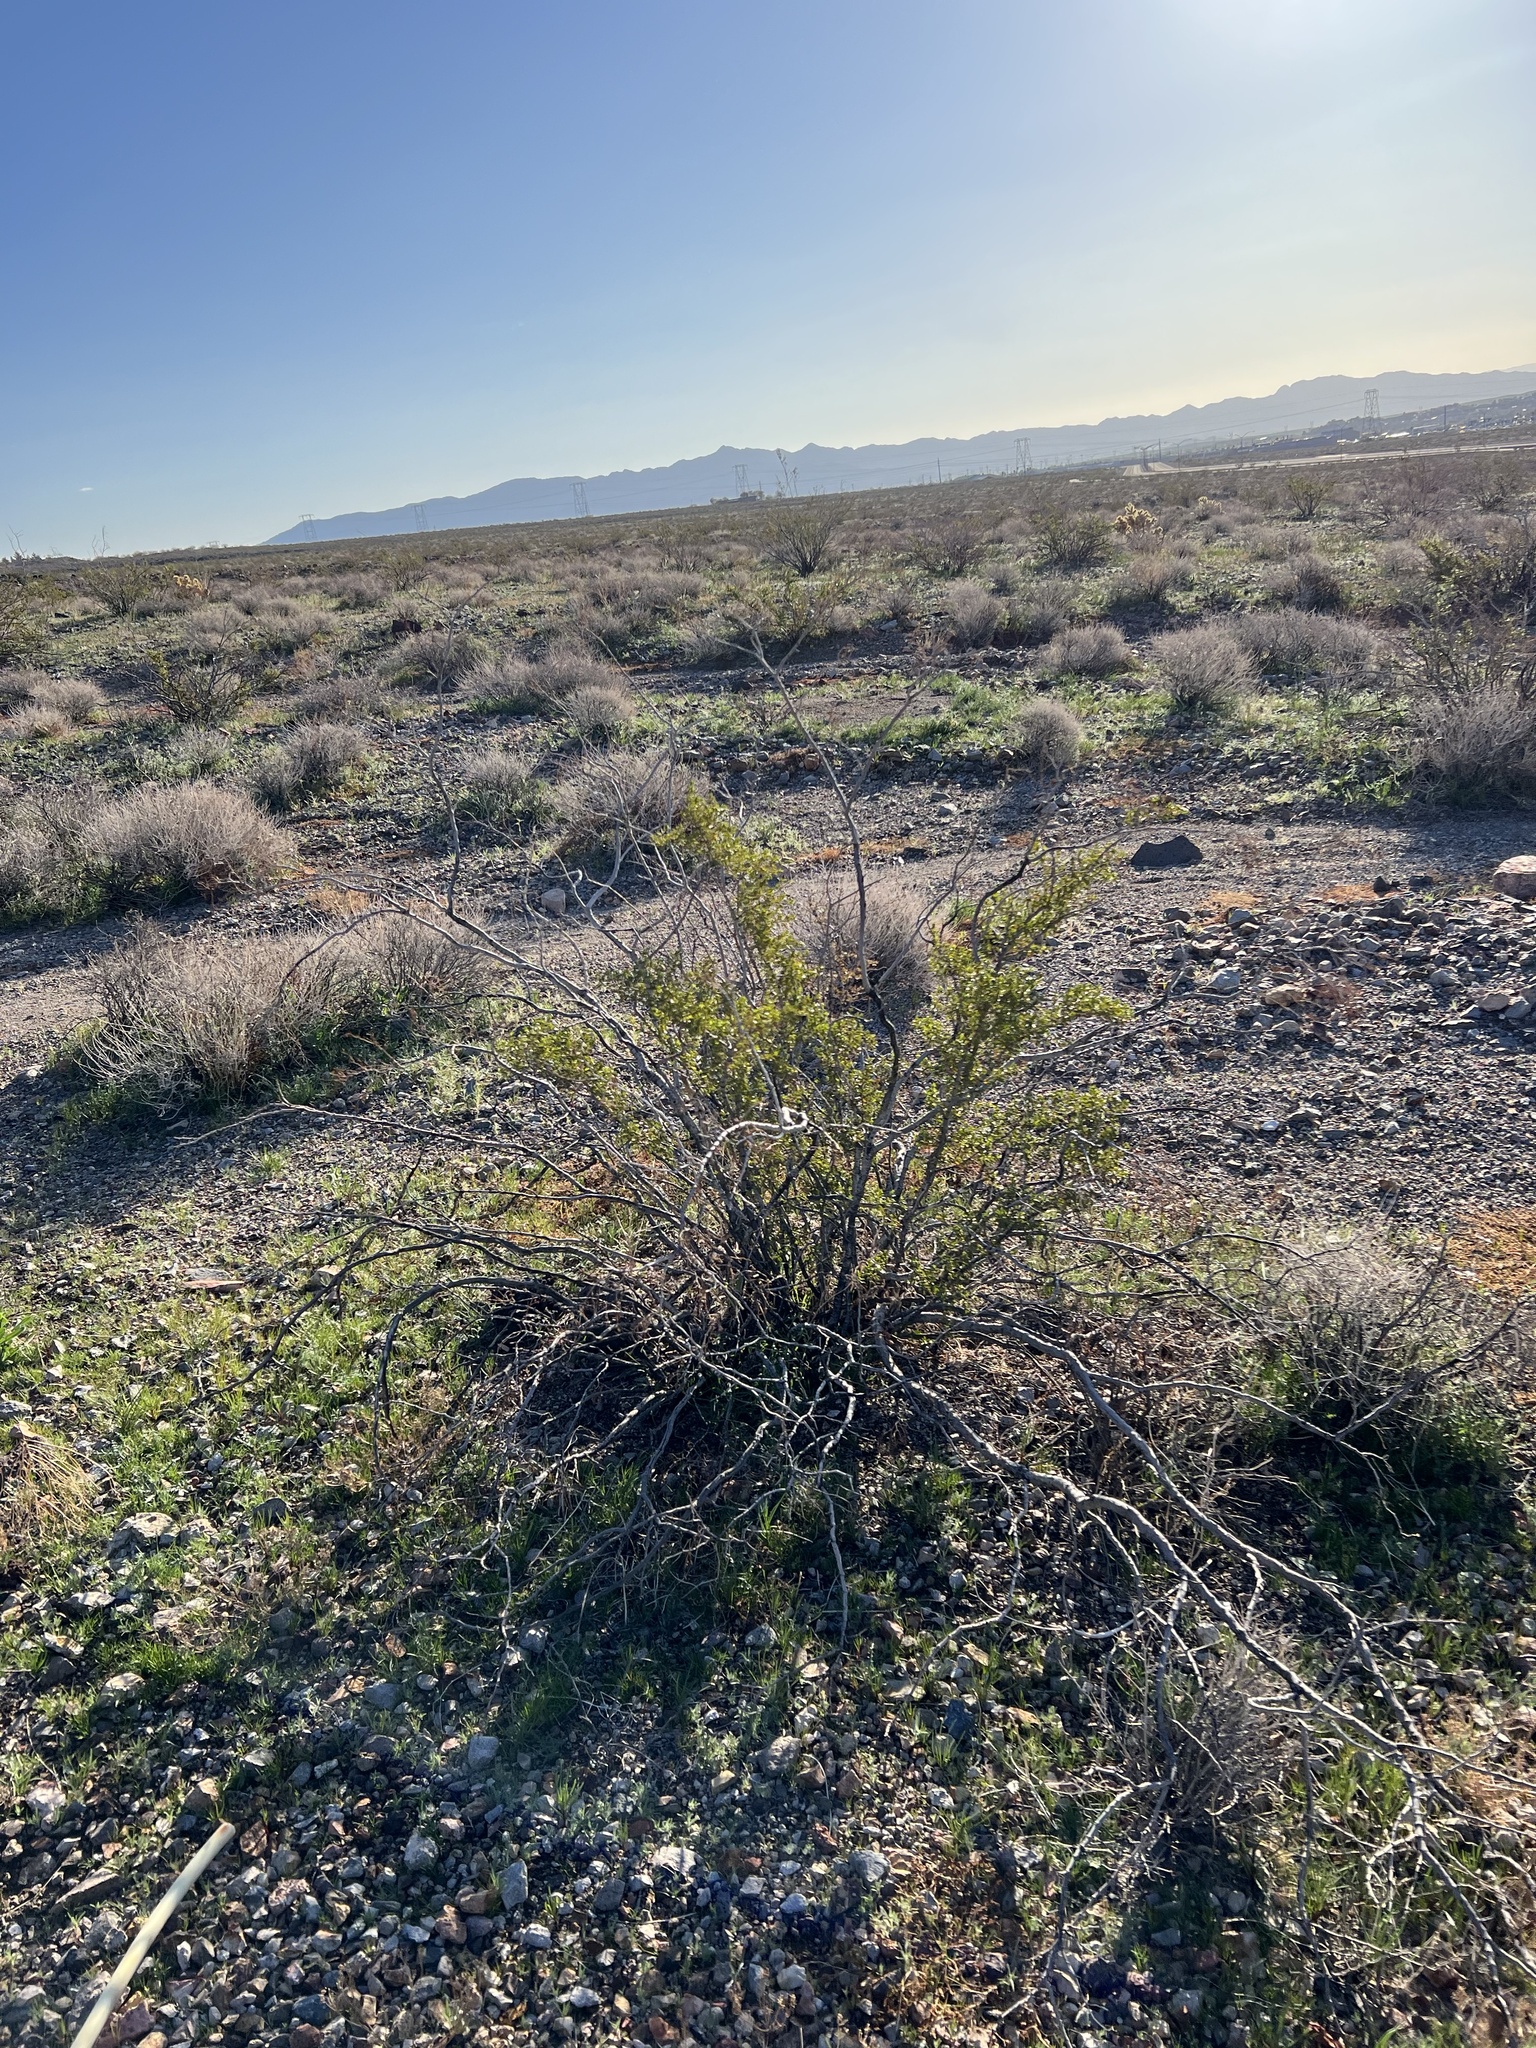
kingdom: Plantae
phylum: Tracheophyta
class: Magnoliopsida
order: Zygophyllales
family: Zygophyllaceae
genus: Larrea
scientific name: Larrea tridentata
